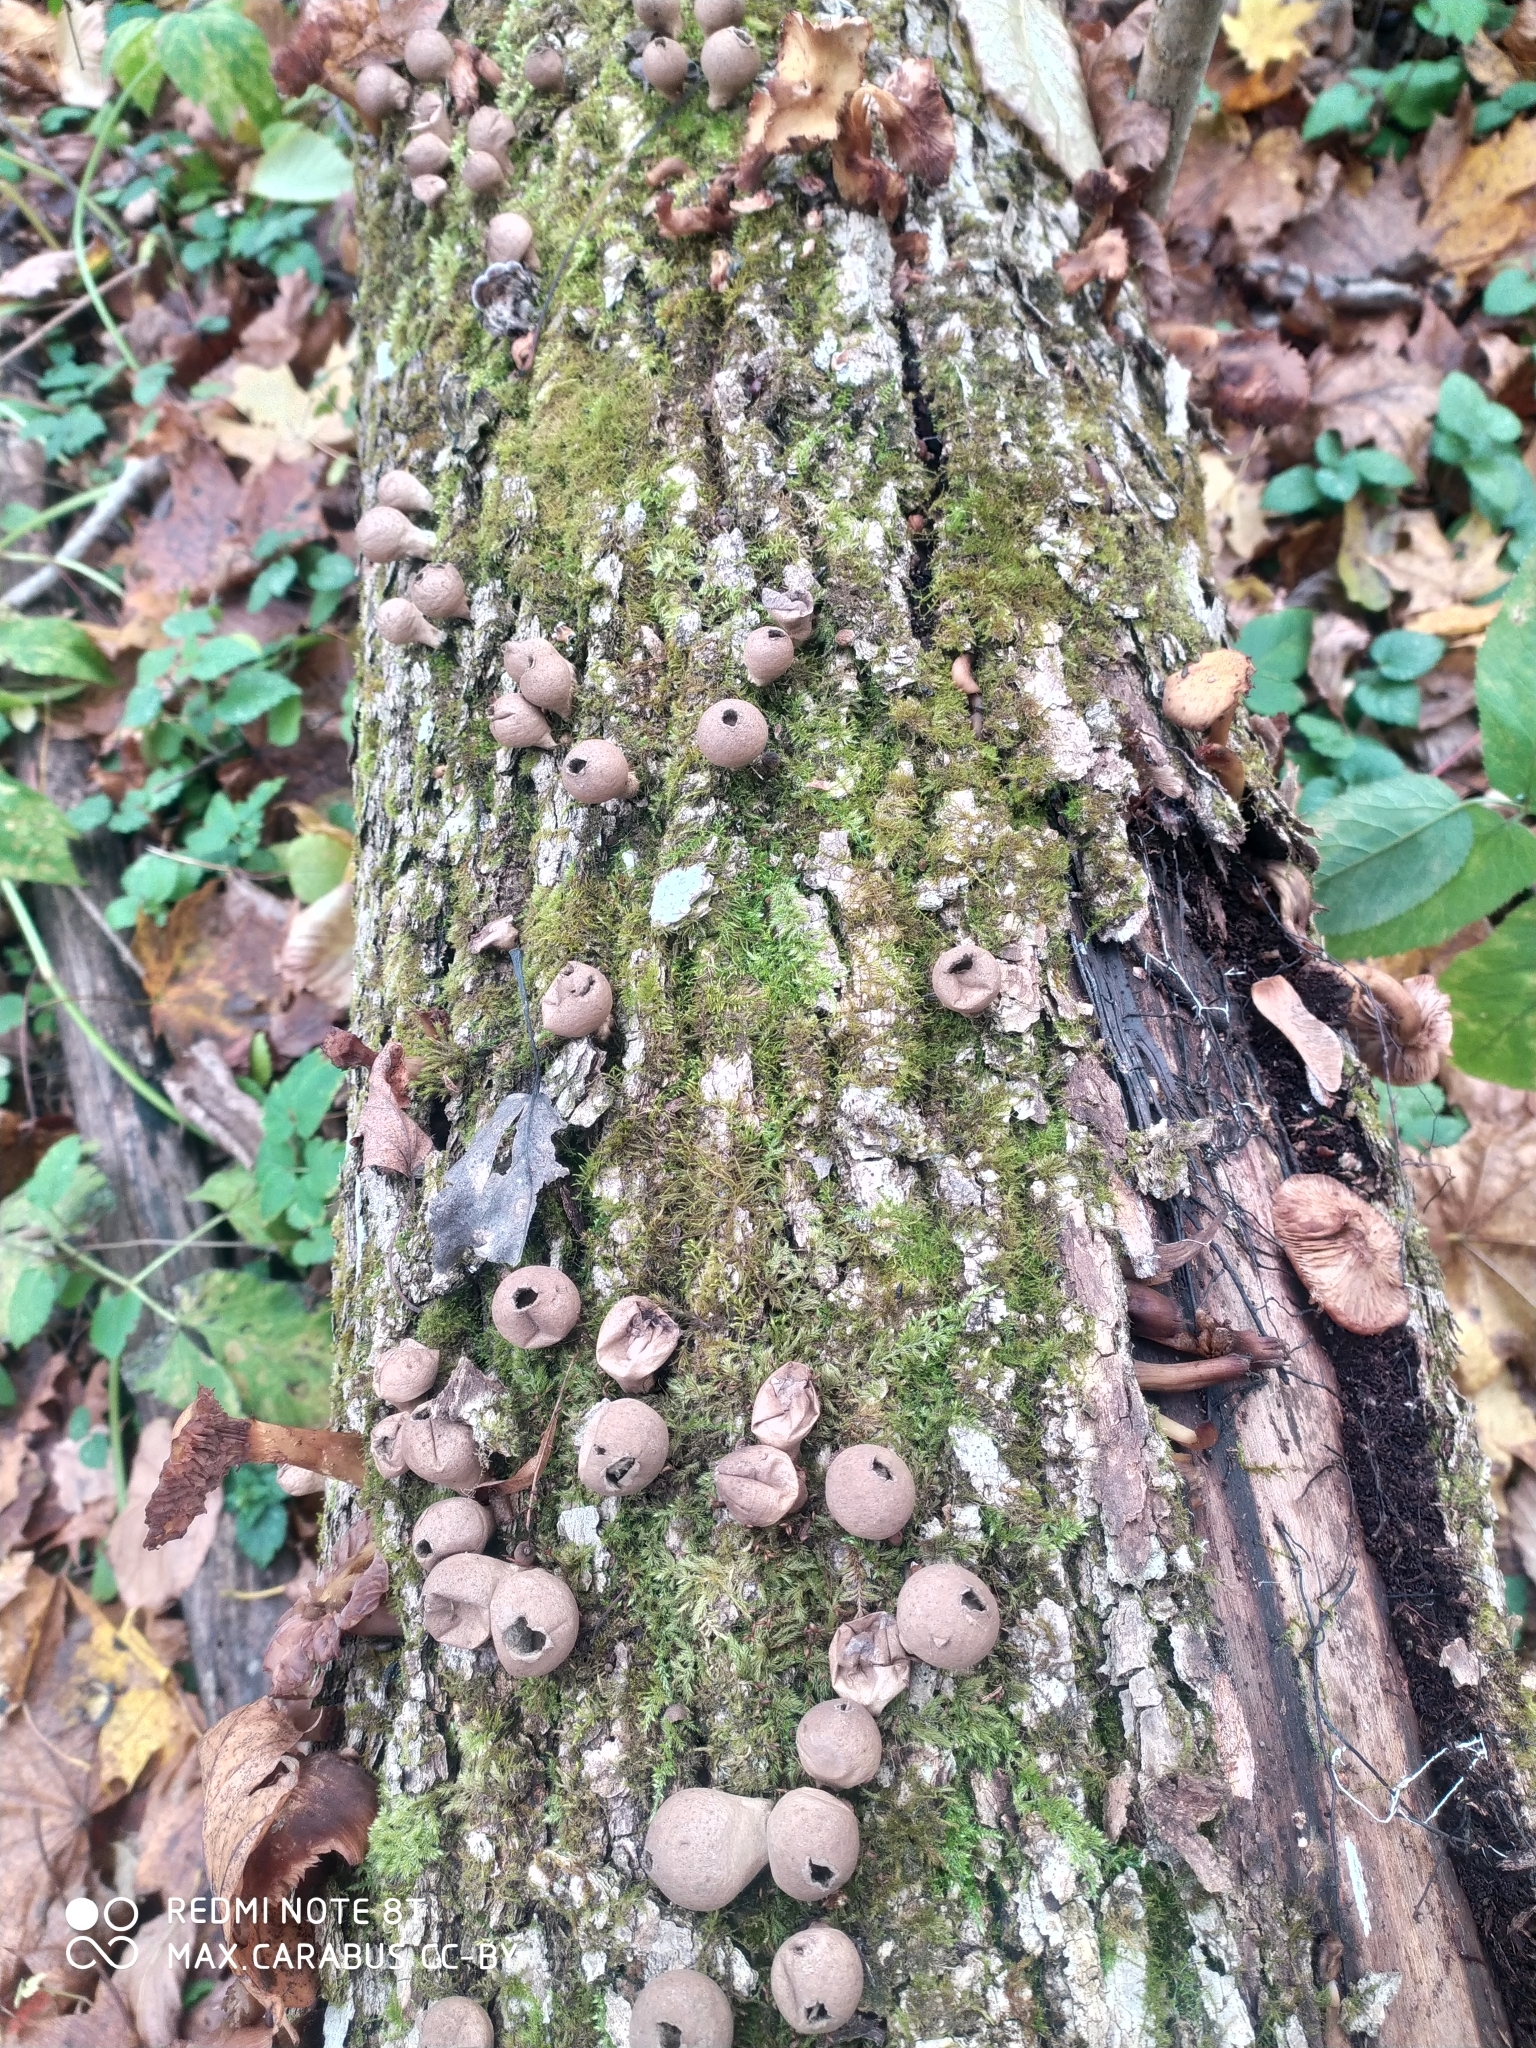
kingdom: Fungi
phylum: Basidiomycota
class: Agaricomycetes
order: Agaricales
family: Lycoperdaceae
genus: Apioperdon
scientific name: Apioperdon pyriforme
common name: Pear-shaped puffball
